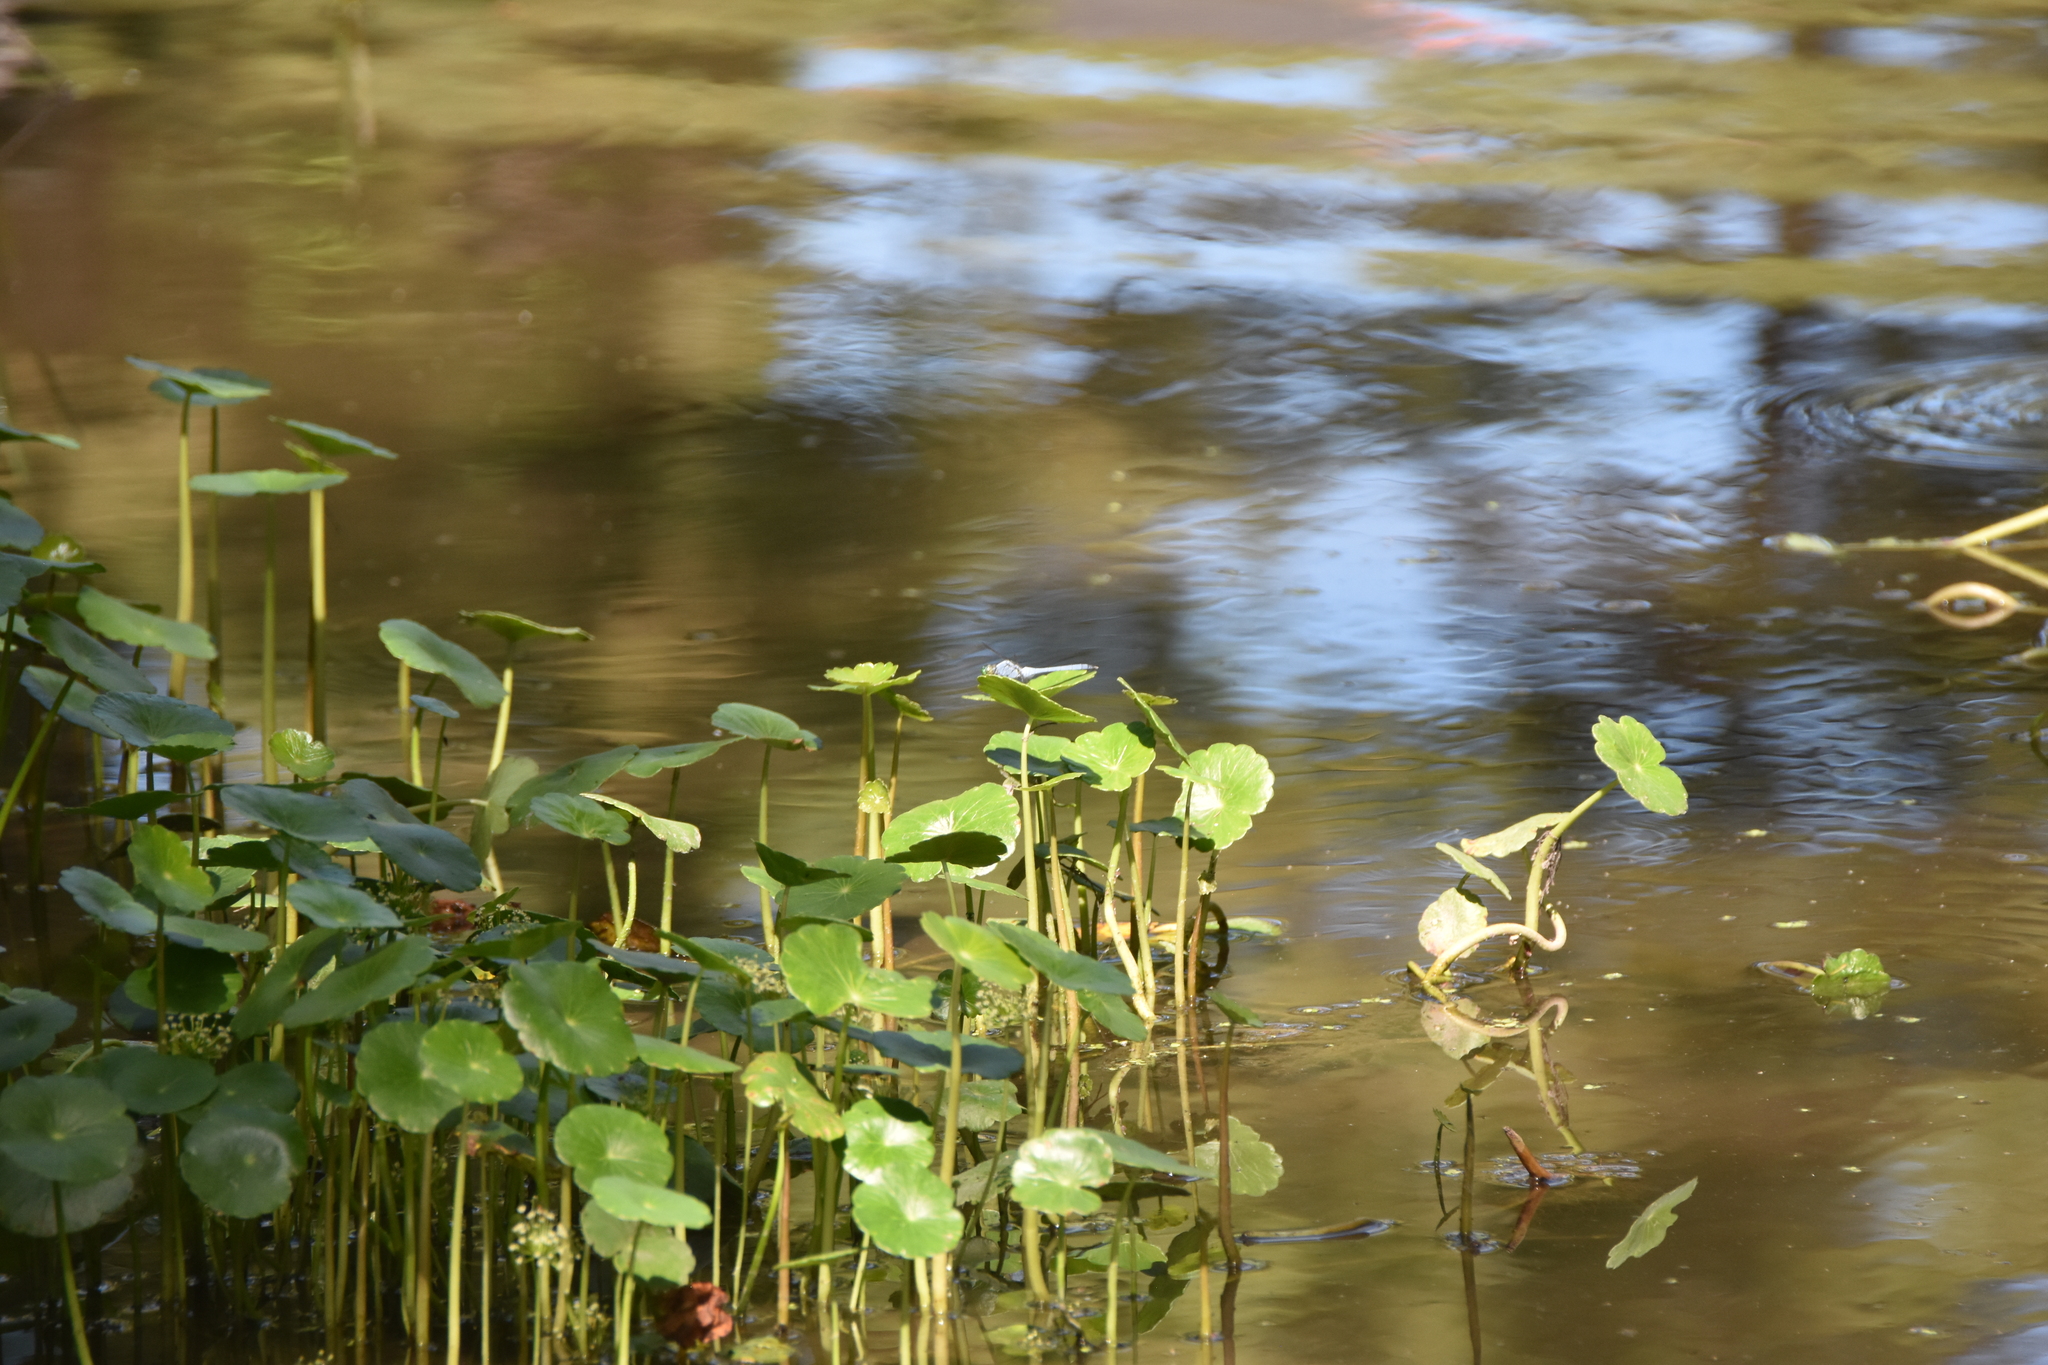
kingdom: Animalia
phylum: Arthropoda
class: Insecta
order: Odonata
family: Libellulidae
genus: Erythemis
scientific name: Erythemis simplicicollis
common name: Eastern pondhawk
